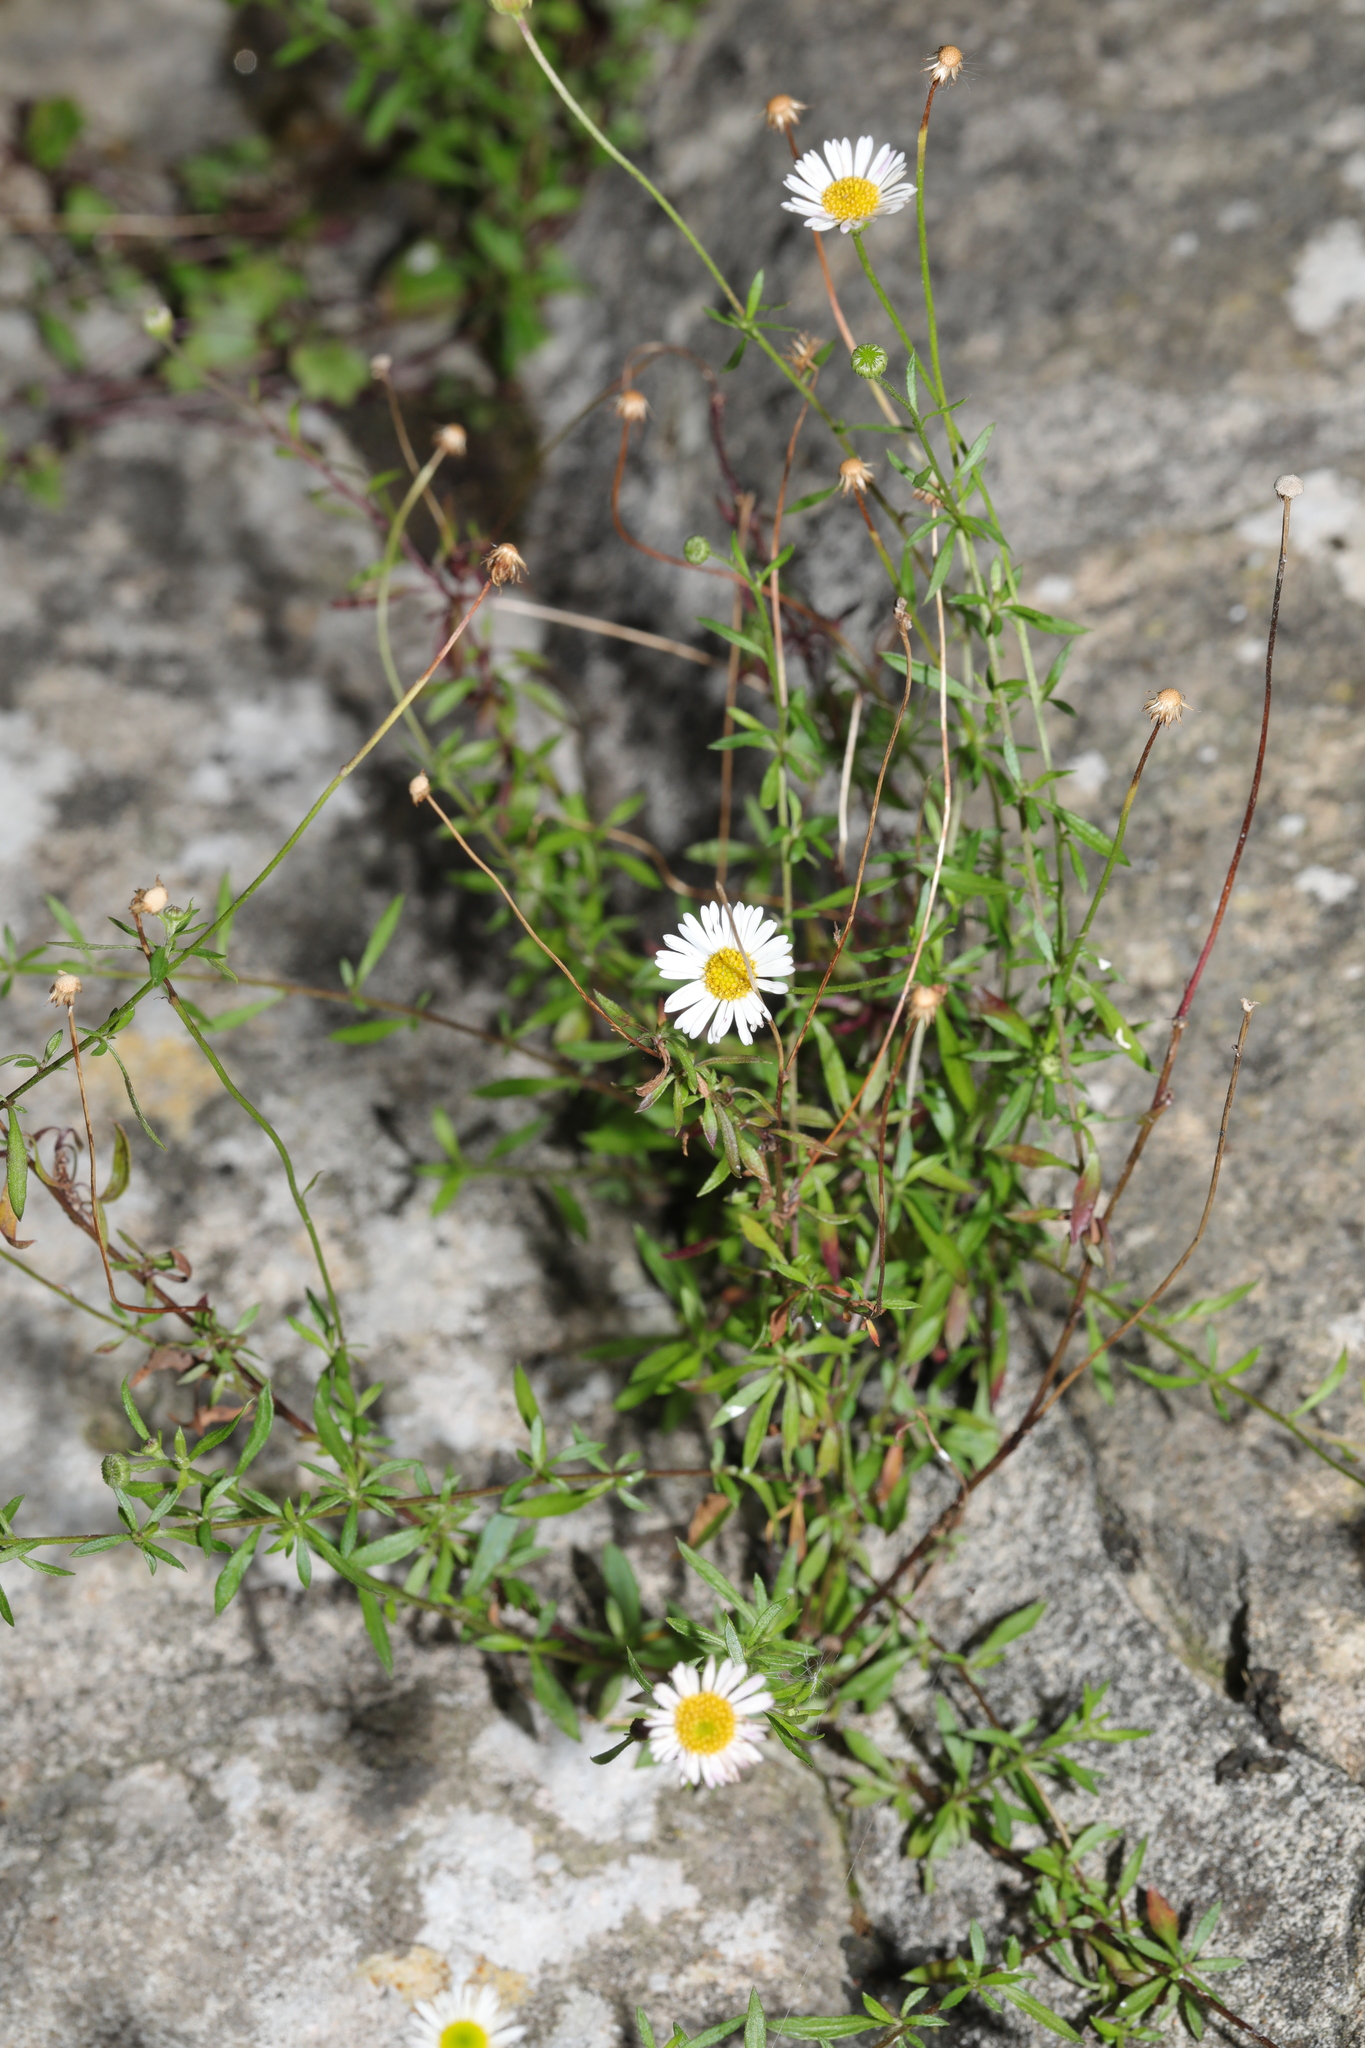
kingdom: Plantae
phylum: Tracheophyta
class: Magnoliopsida
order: Asterales
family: Asteraceae
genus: Erigeron
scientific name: Erigeron karvinskianus
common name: Mexican fleabane
